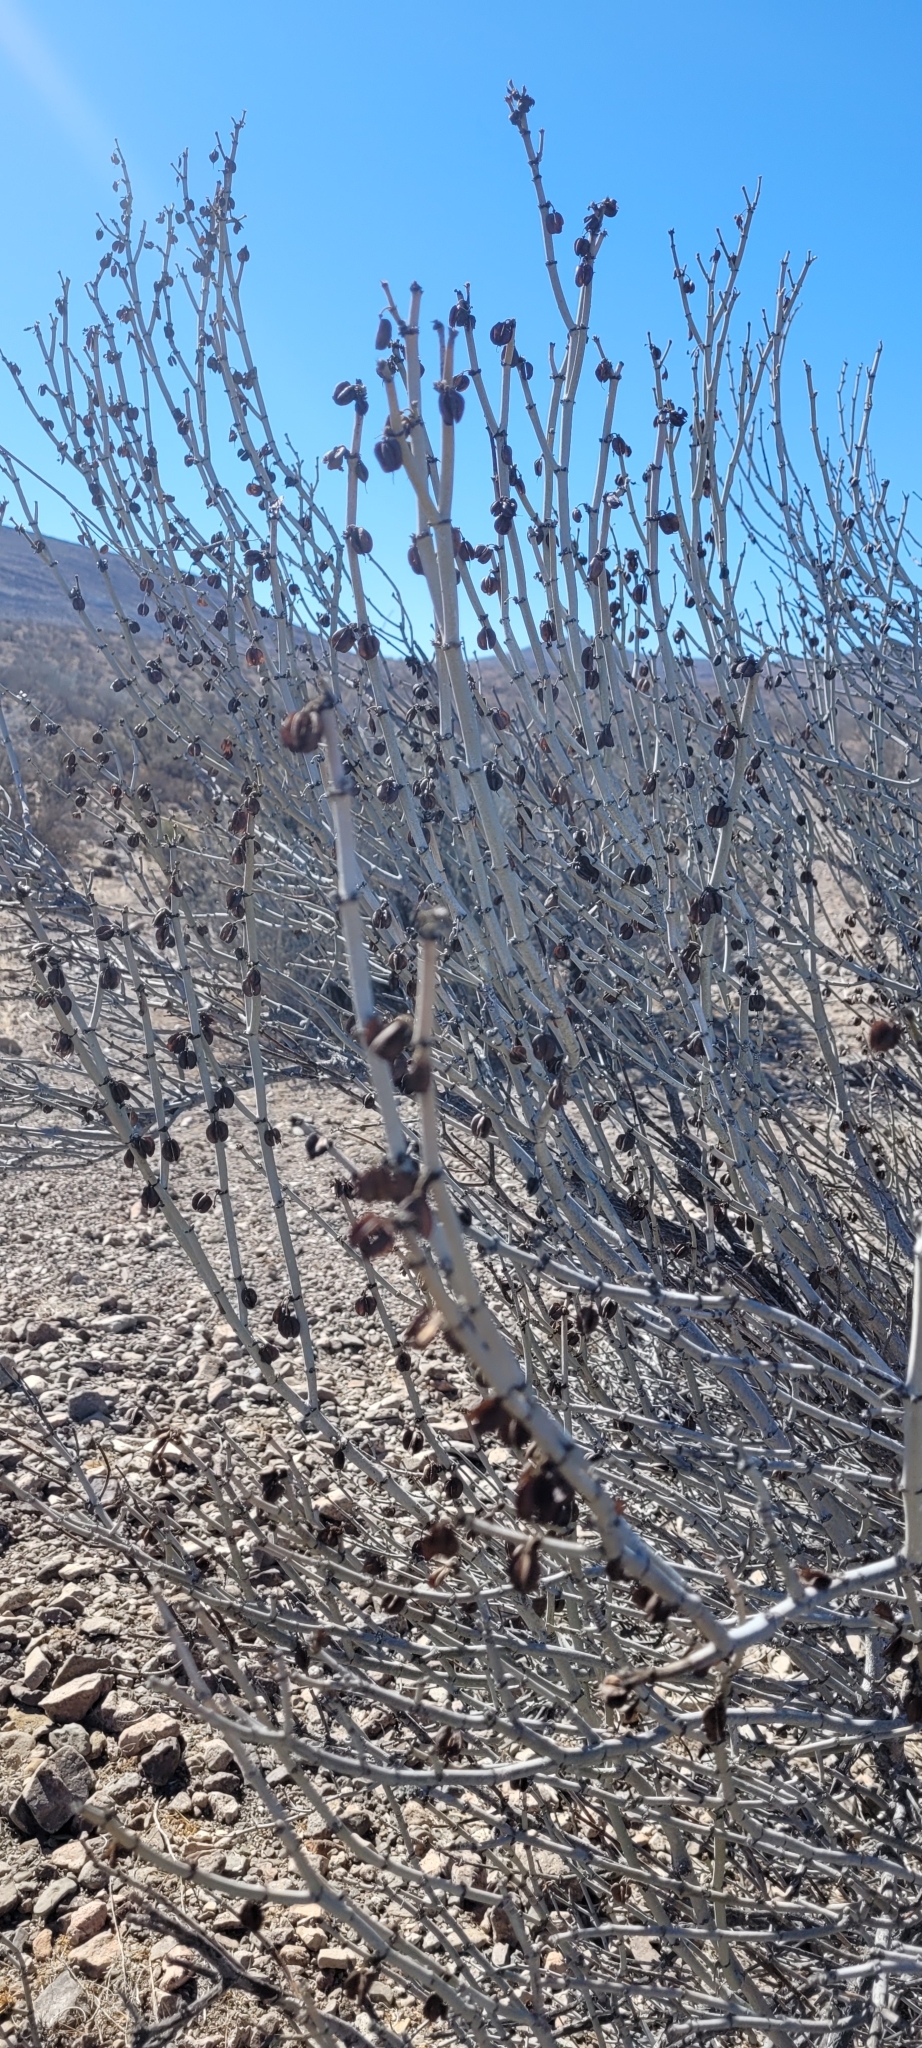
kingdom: Plantae
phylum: Tracheophyta
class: Magnoliopsida
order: Zygophyllales
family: Zygophyllaceae
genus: Bulnesia
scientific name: Bulnesia chilensis
